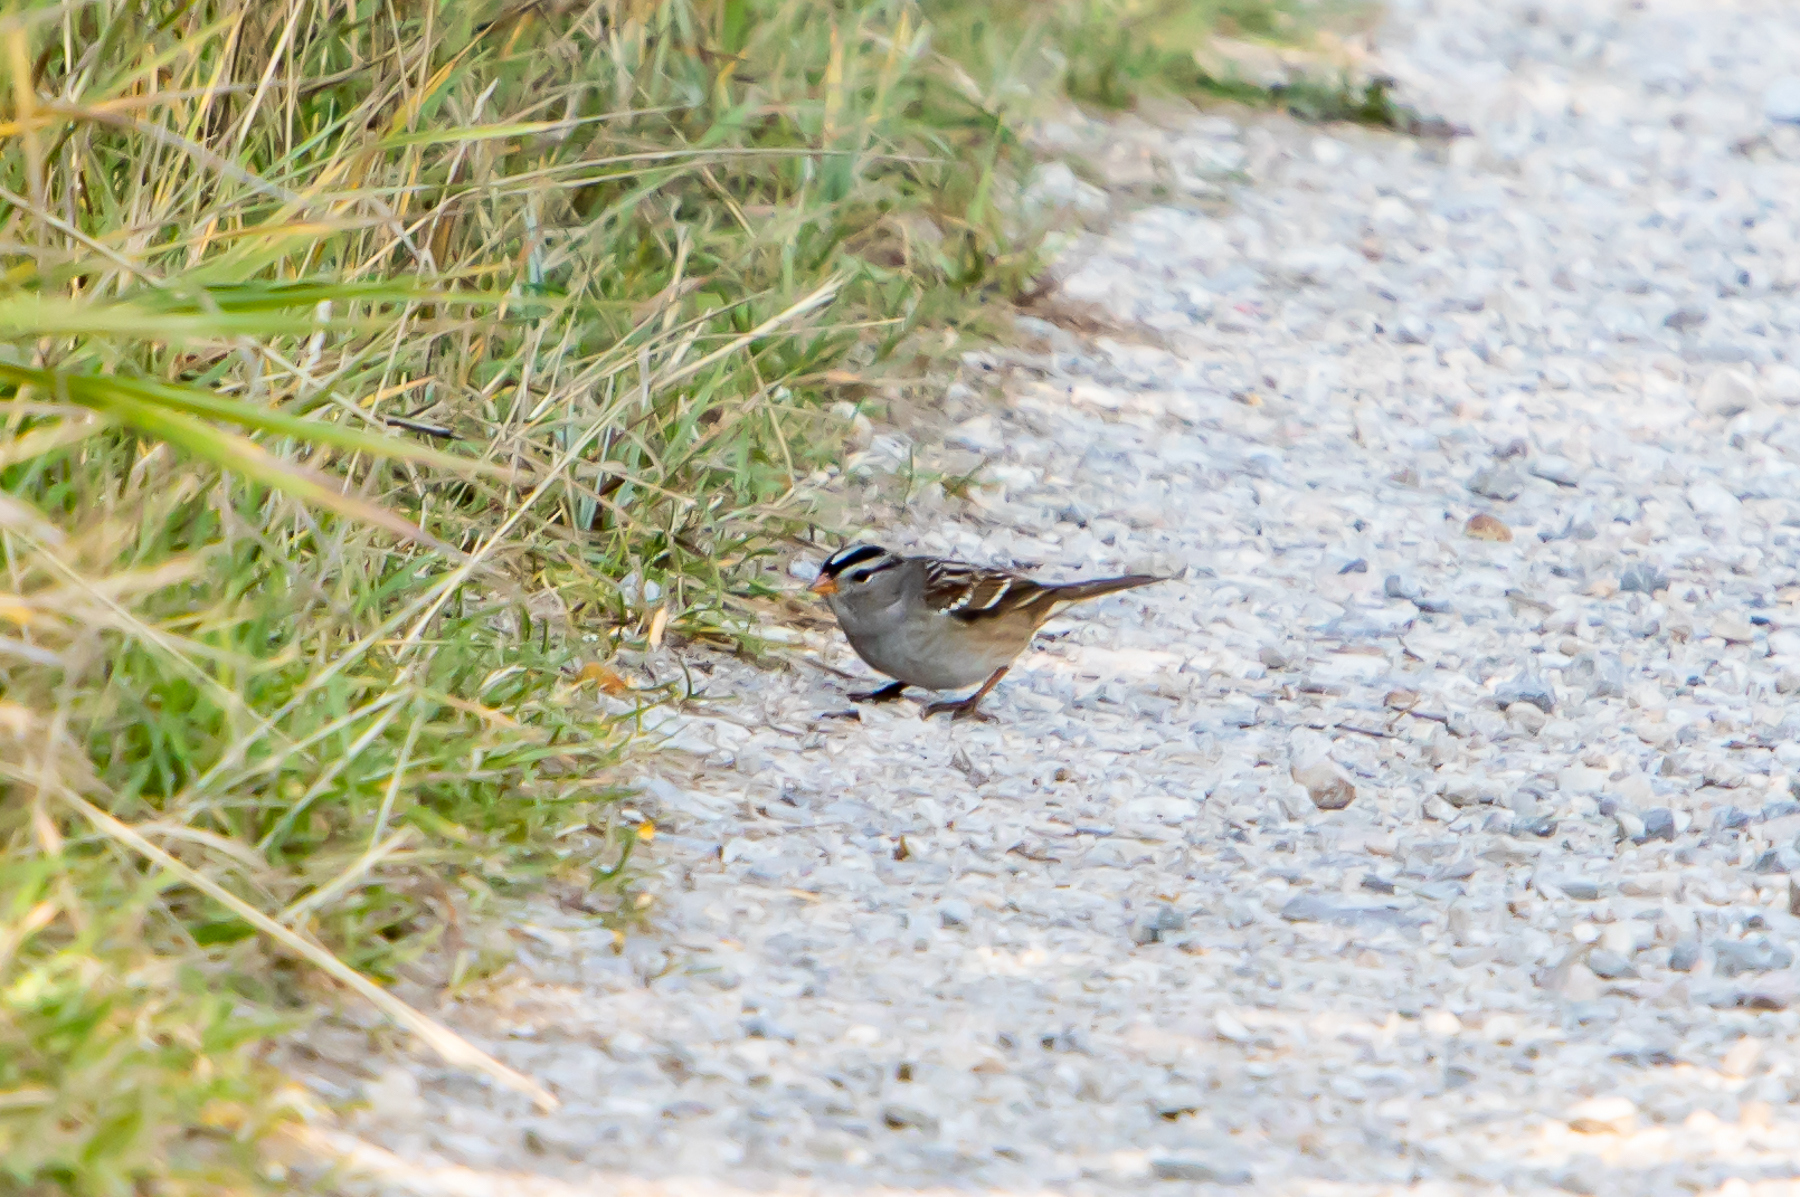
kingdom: Animalia
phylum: Chordata
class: Aves
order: Passeriformes
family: Passerellidae
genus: Zonotrichia
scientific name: Zonotrichia leucophrys
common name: White-crowned sparrow
